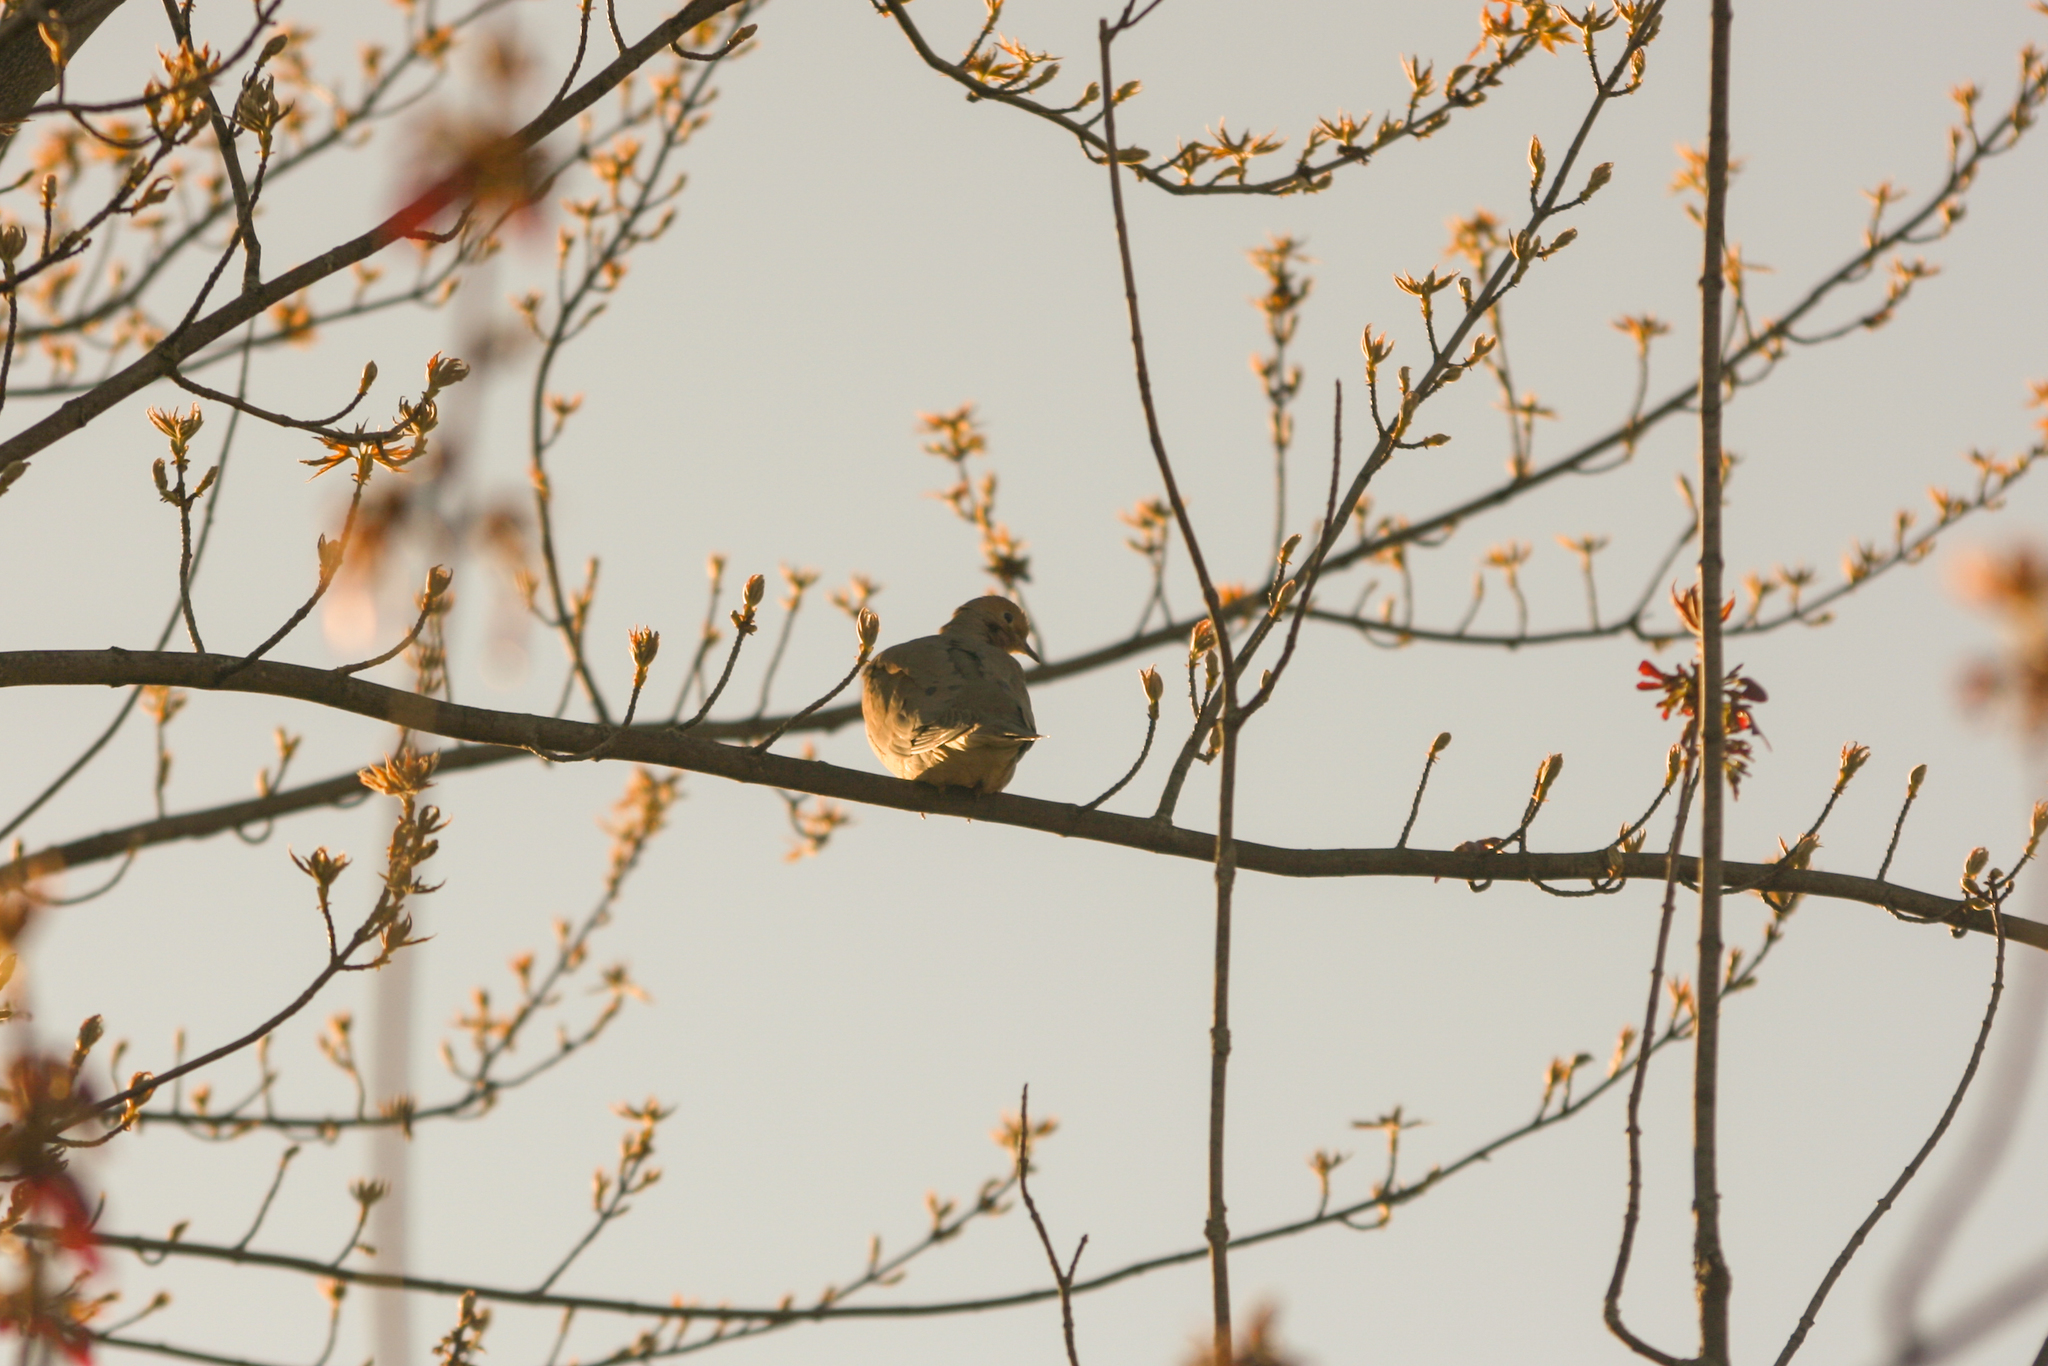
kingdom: Animalia
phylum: Chordata
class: Aves
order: Columbiformes
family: Columbidae
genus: Zenaida
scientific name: Zenaida macroura
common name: Mourning dove
